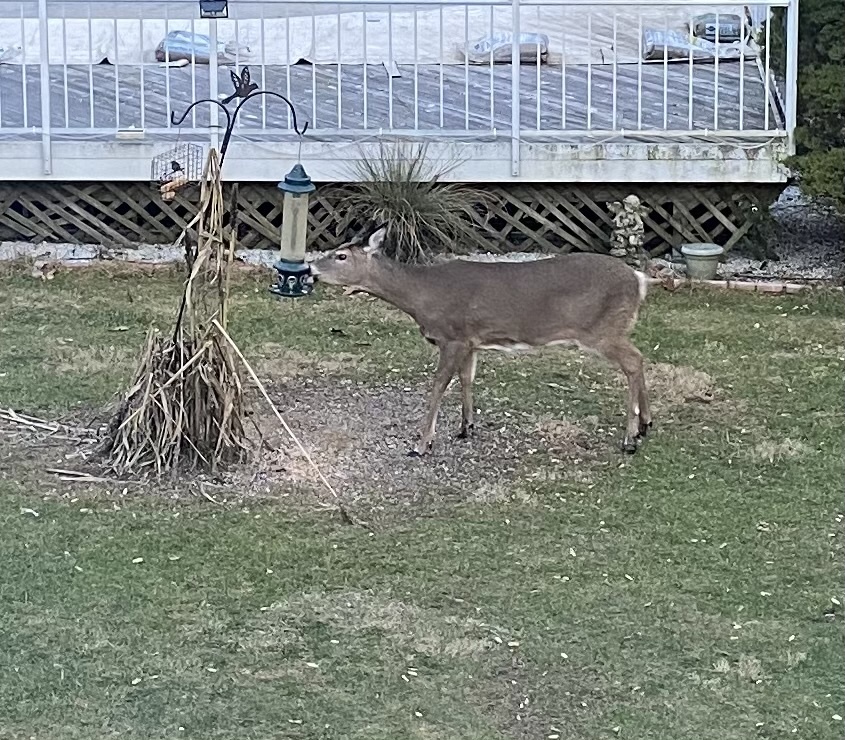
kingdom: Animalia
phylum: Chordata
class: Mammalia
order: Artiodactyla
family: Cervidae
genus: Odocoileus
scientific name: Odocoileus virginianus
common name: White-tailed deer
